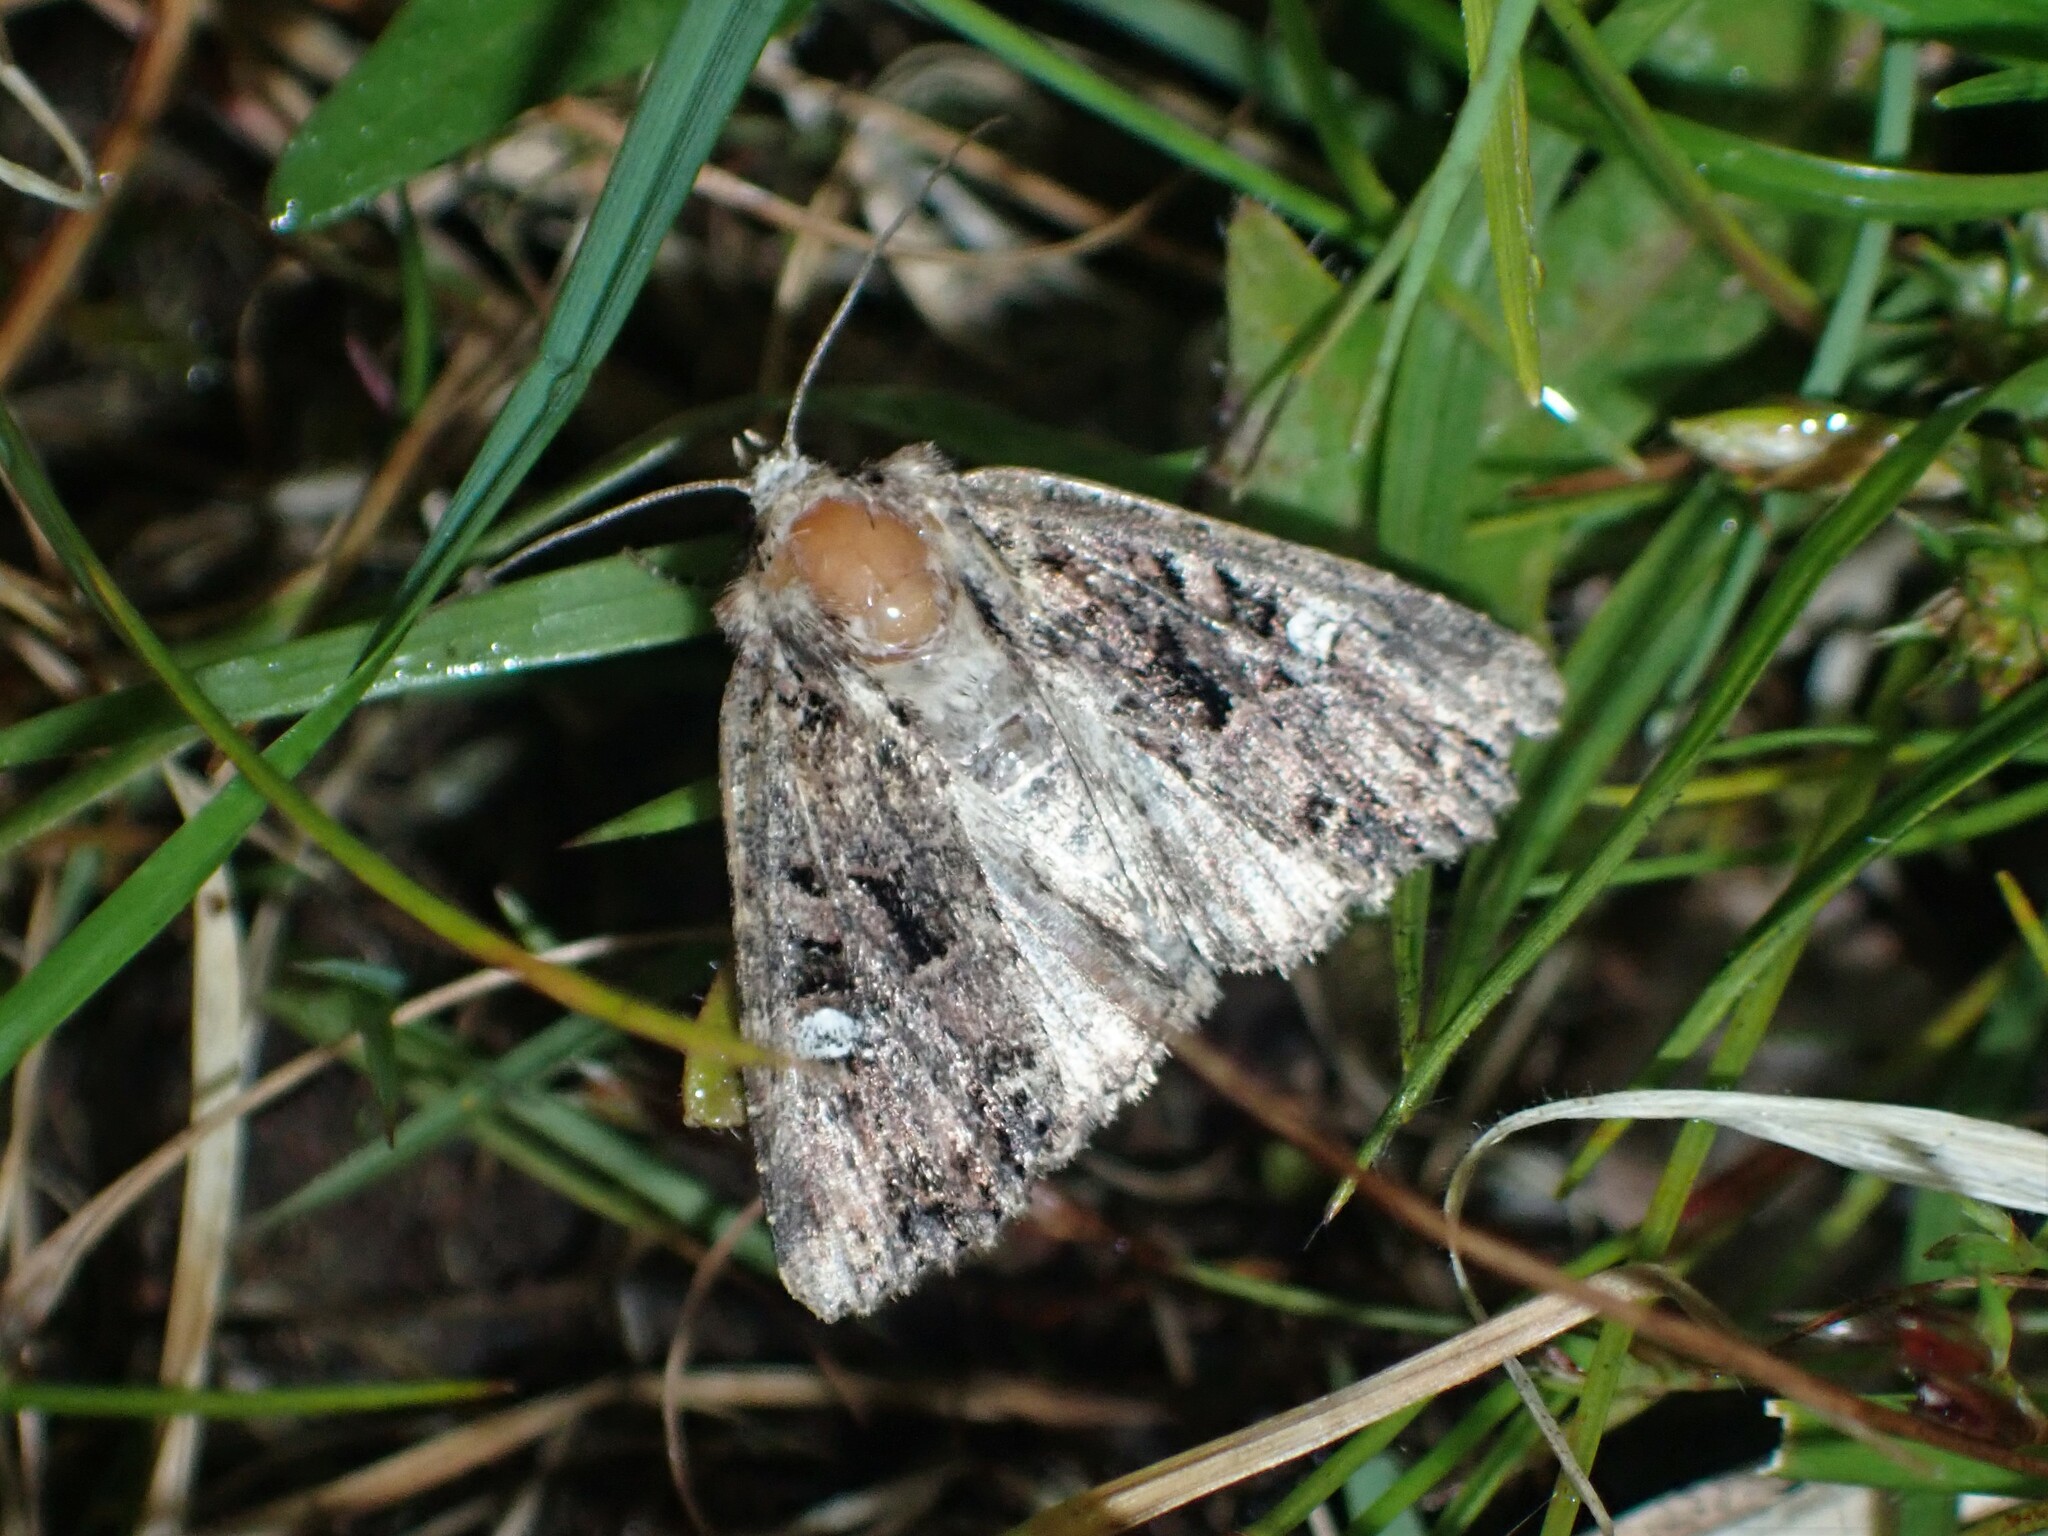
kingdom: Animalia
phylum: Arthropoda
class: Insecta
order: Lepidoptera
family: Noctuidae
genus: Mesapamea
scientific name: Mesapamea storai
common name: Owlet moth
